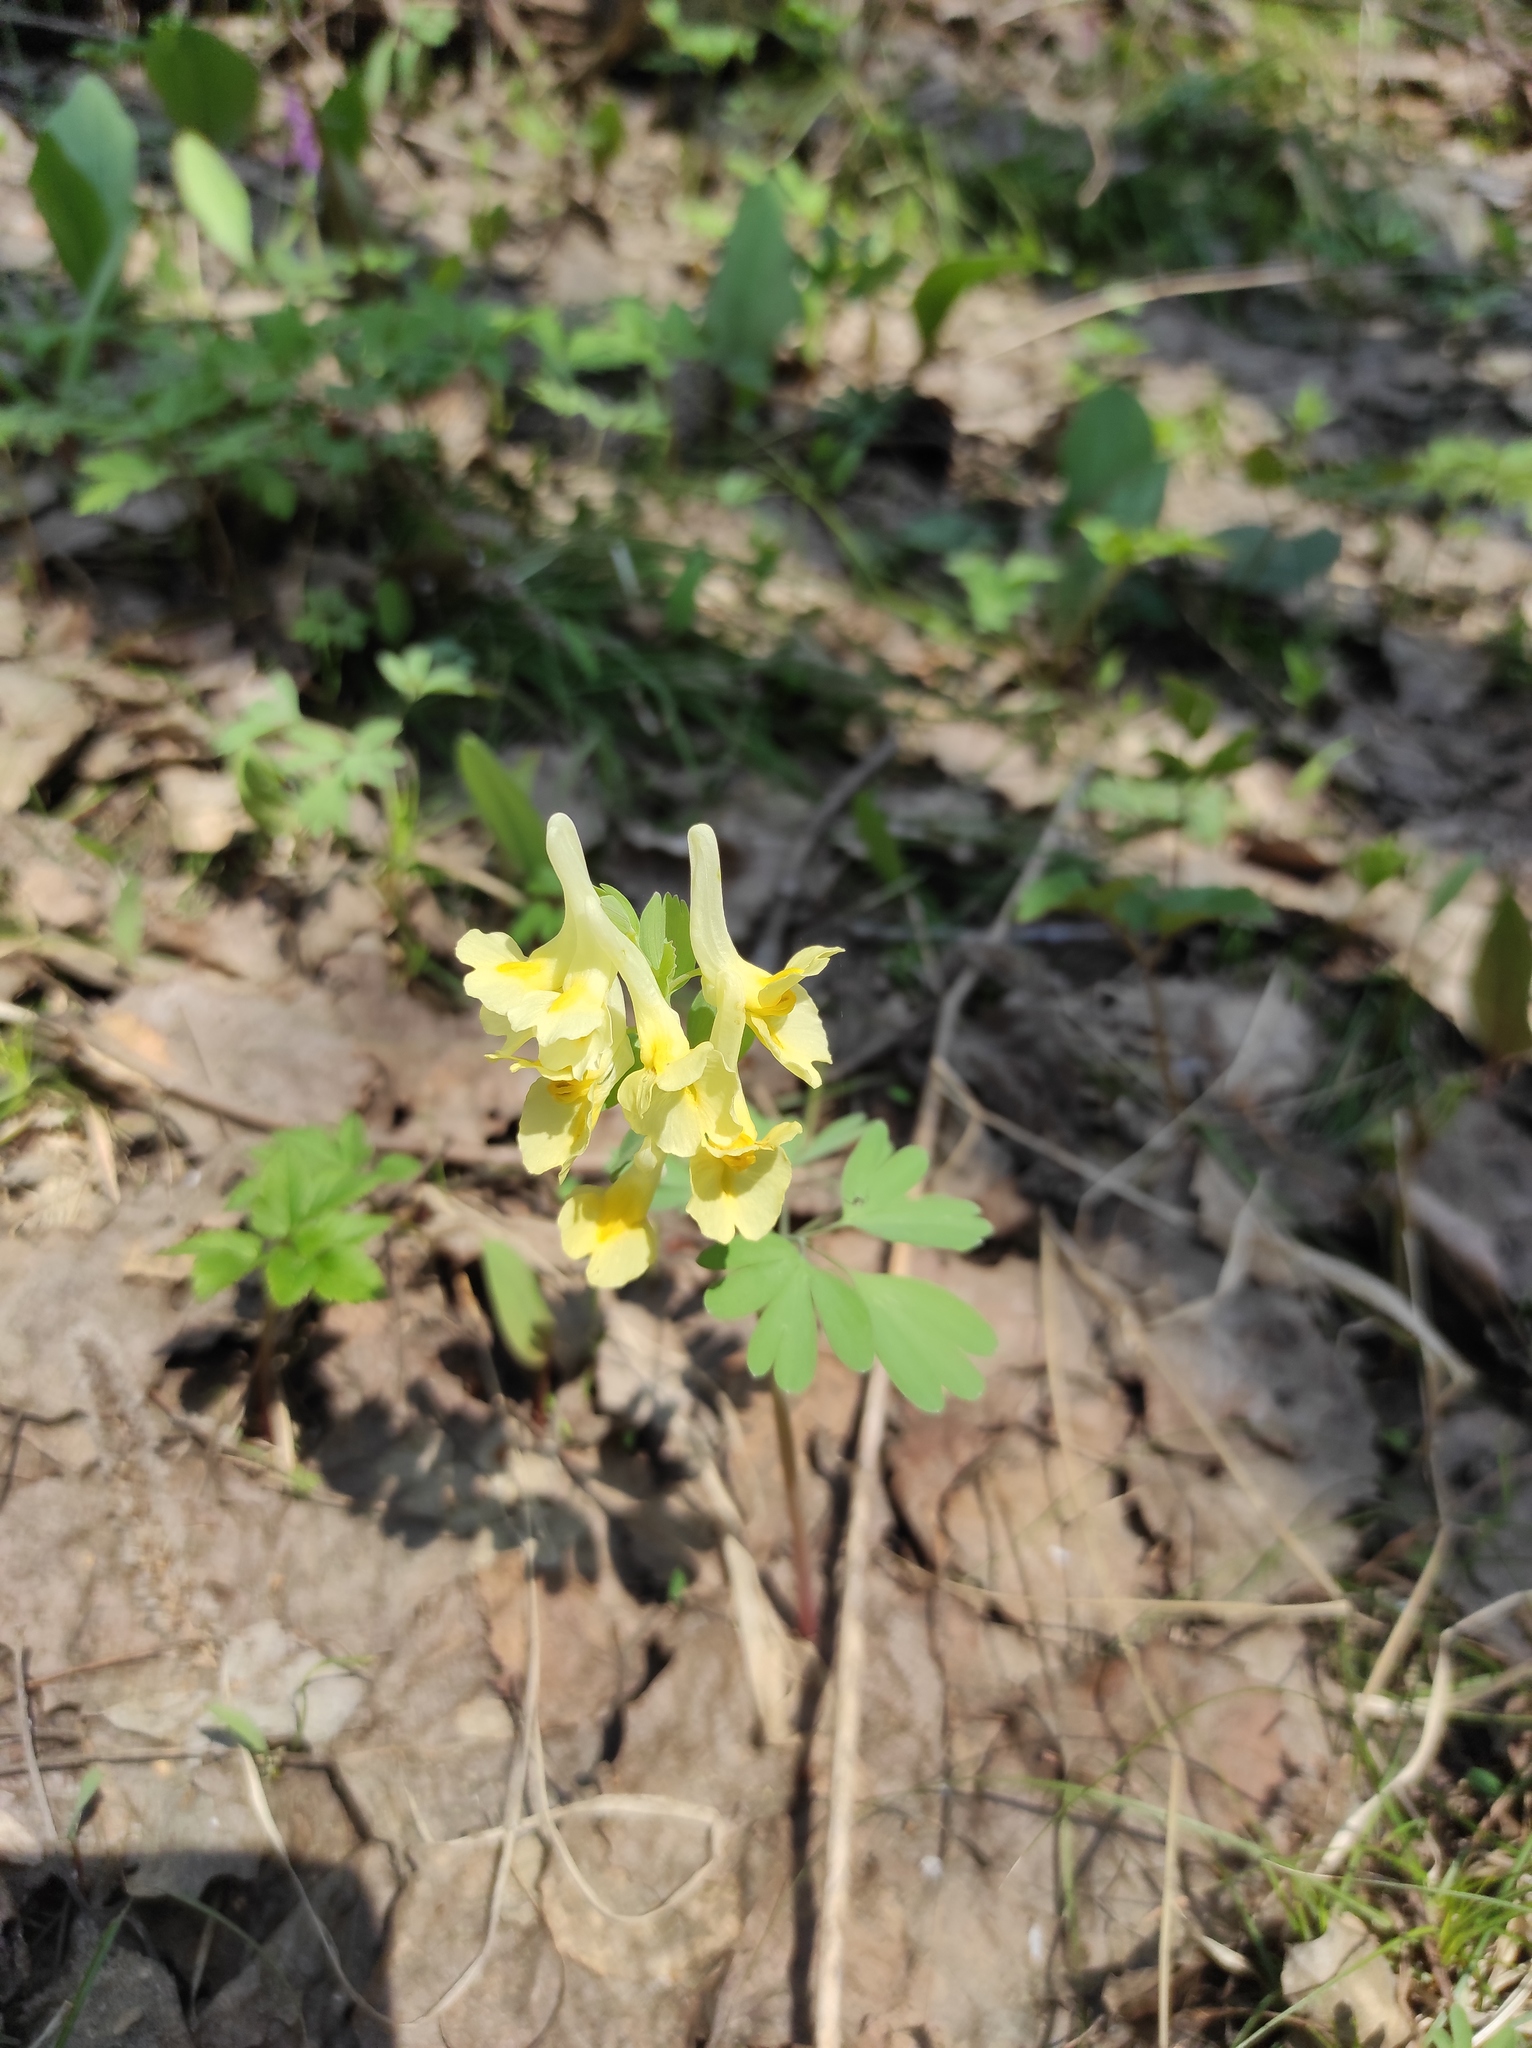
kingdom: Plantae
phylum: Tracheophyta
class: Magnoliopsida
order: Ranunculales
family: Papaveraceae
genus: Corydalis
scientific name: Corydalis bracteata
